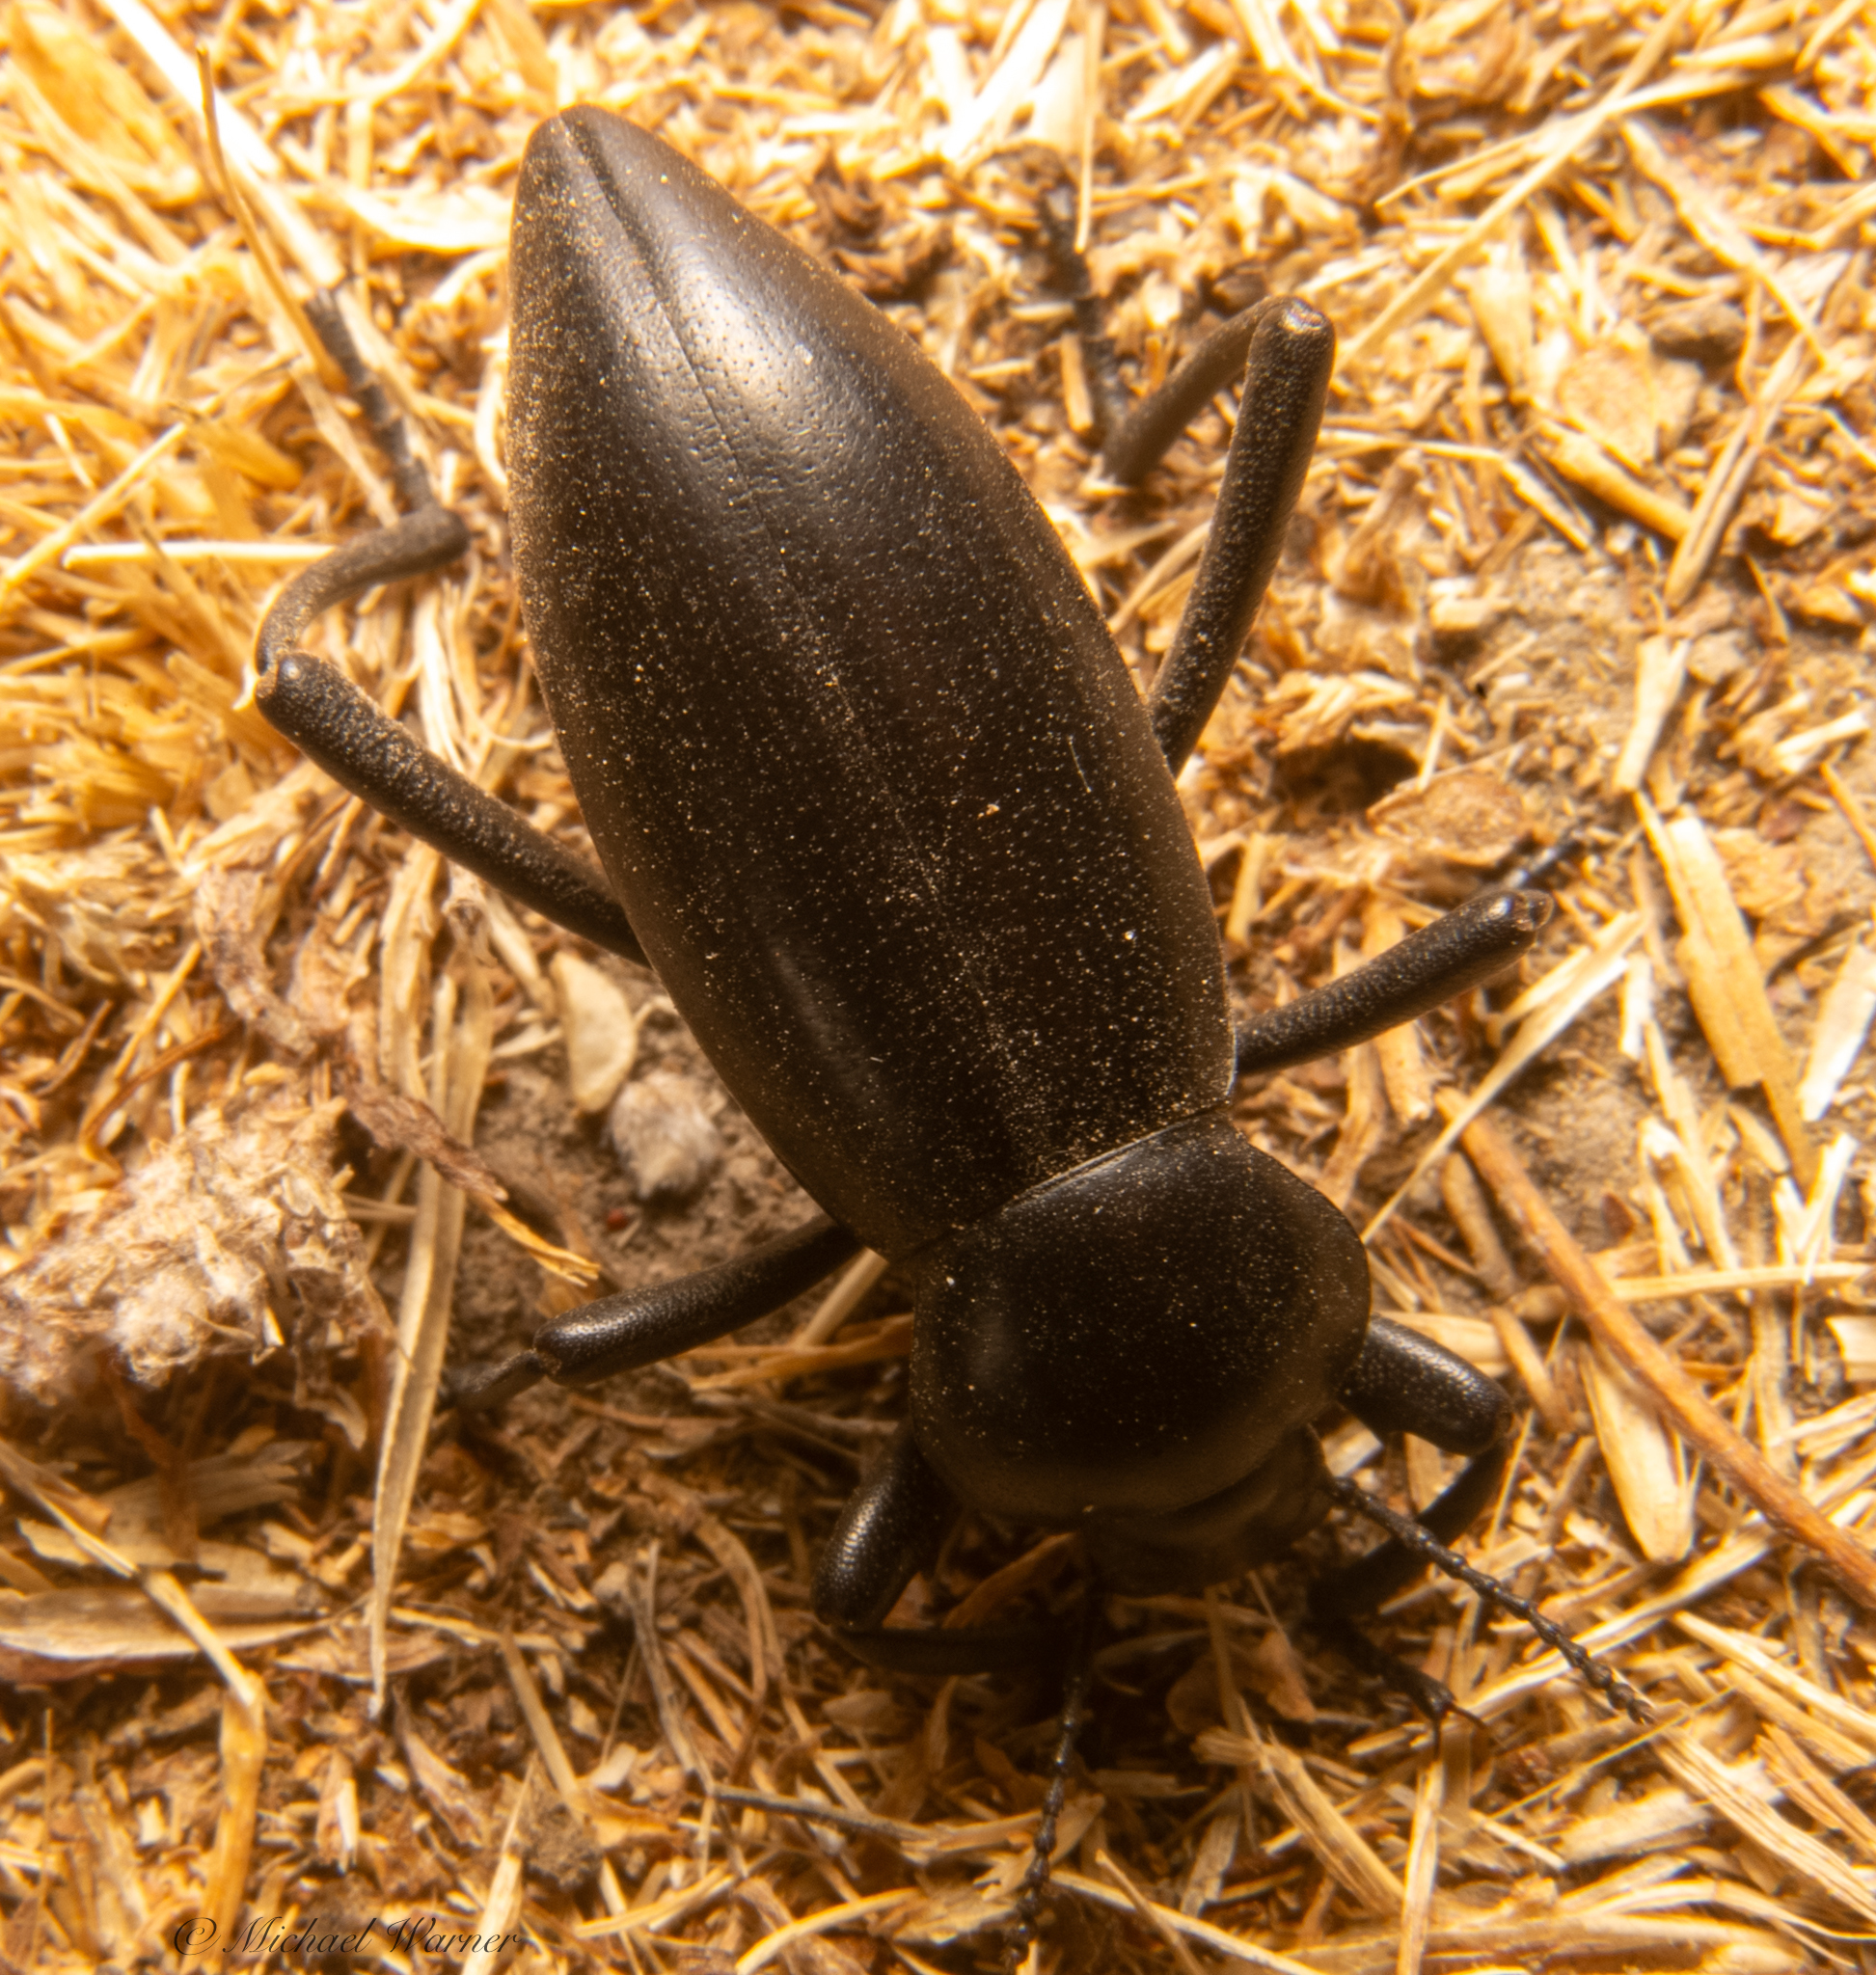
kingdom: Animalia
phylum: Arthropoda
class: Insecta
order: Coleoptera
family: Tenebrionidae
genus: Eleodes
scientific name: Eleodes dentipes
